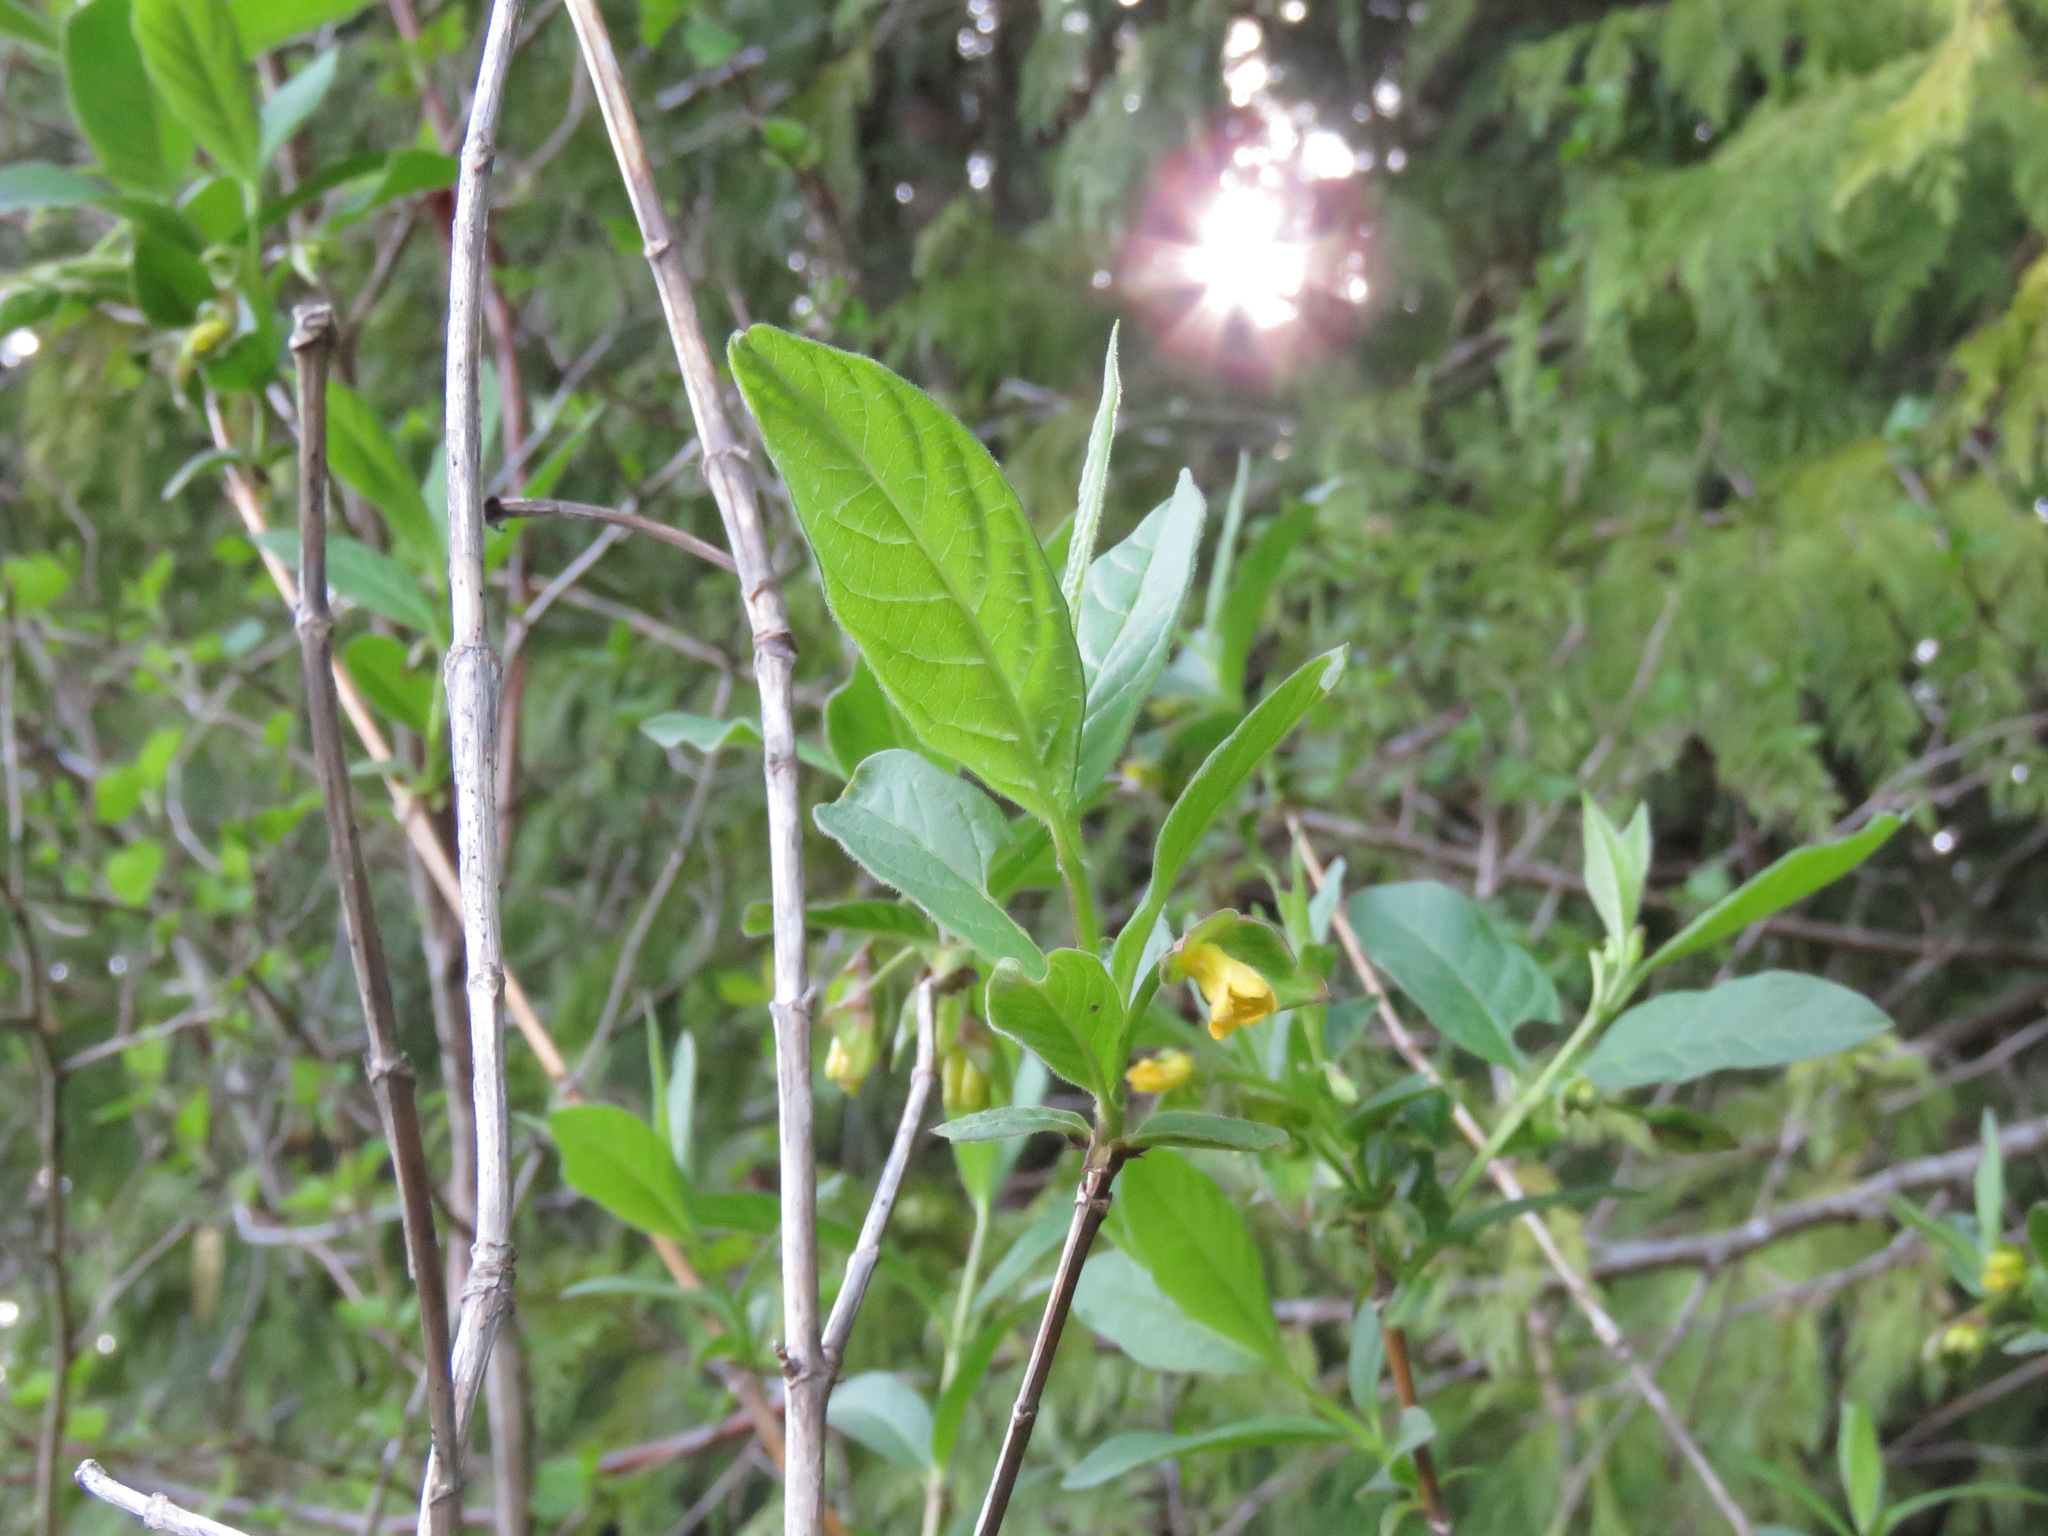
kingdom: Plantae
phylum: Tracheophyta
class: Magnoliopsida
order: Dipsacales
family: Caprifoliaceae
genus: Lonicera
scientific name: Lonicera involucrata
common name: Californian honeysuckle
